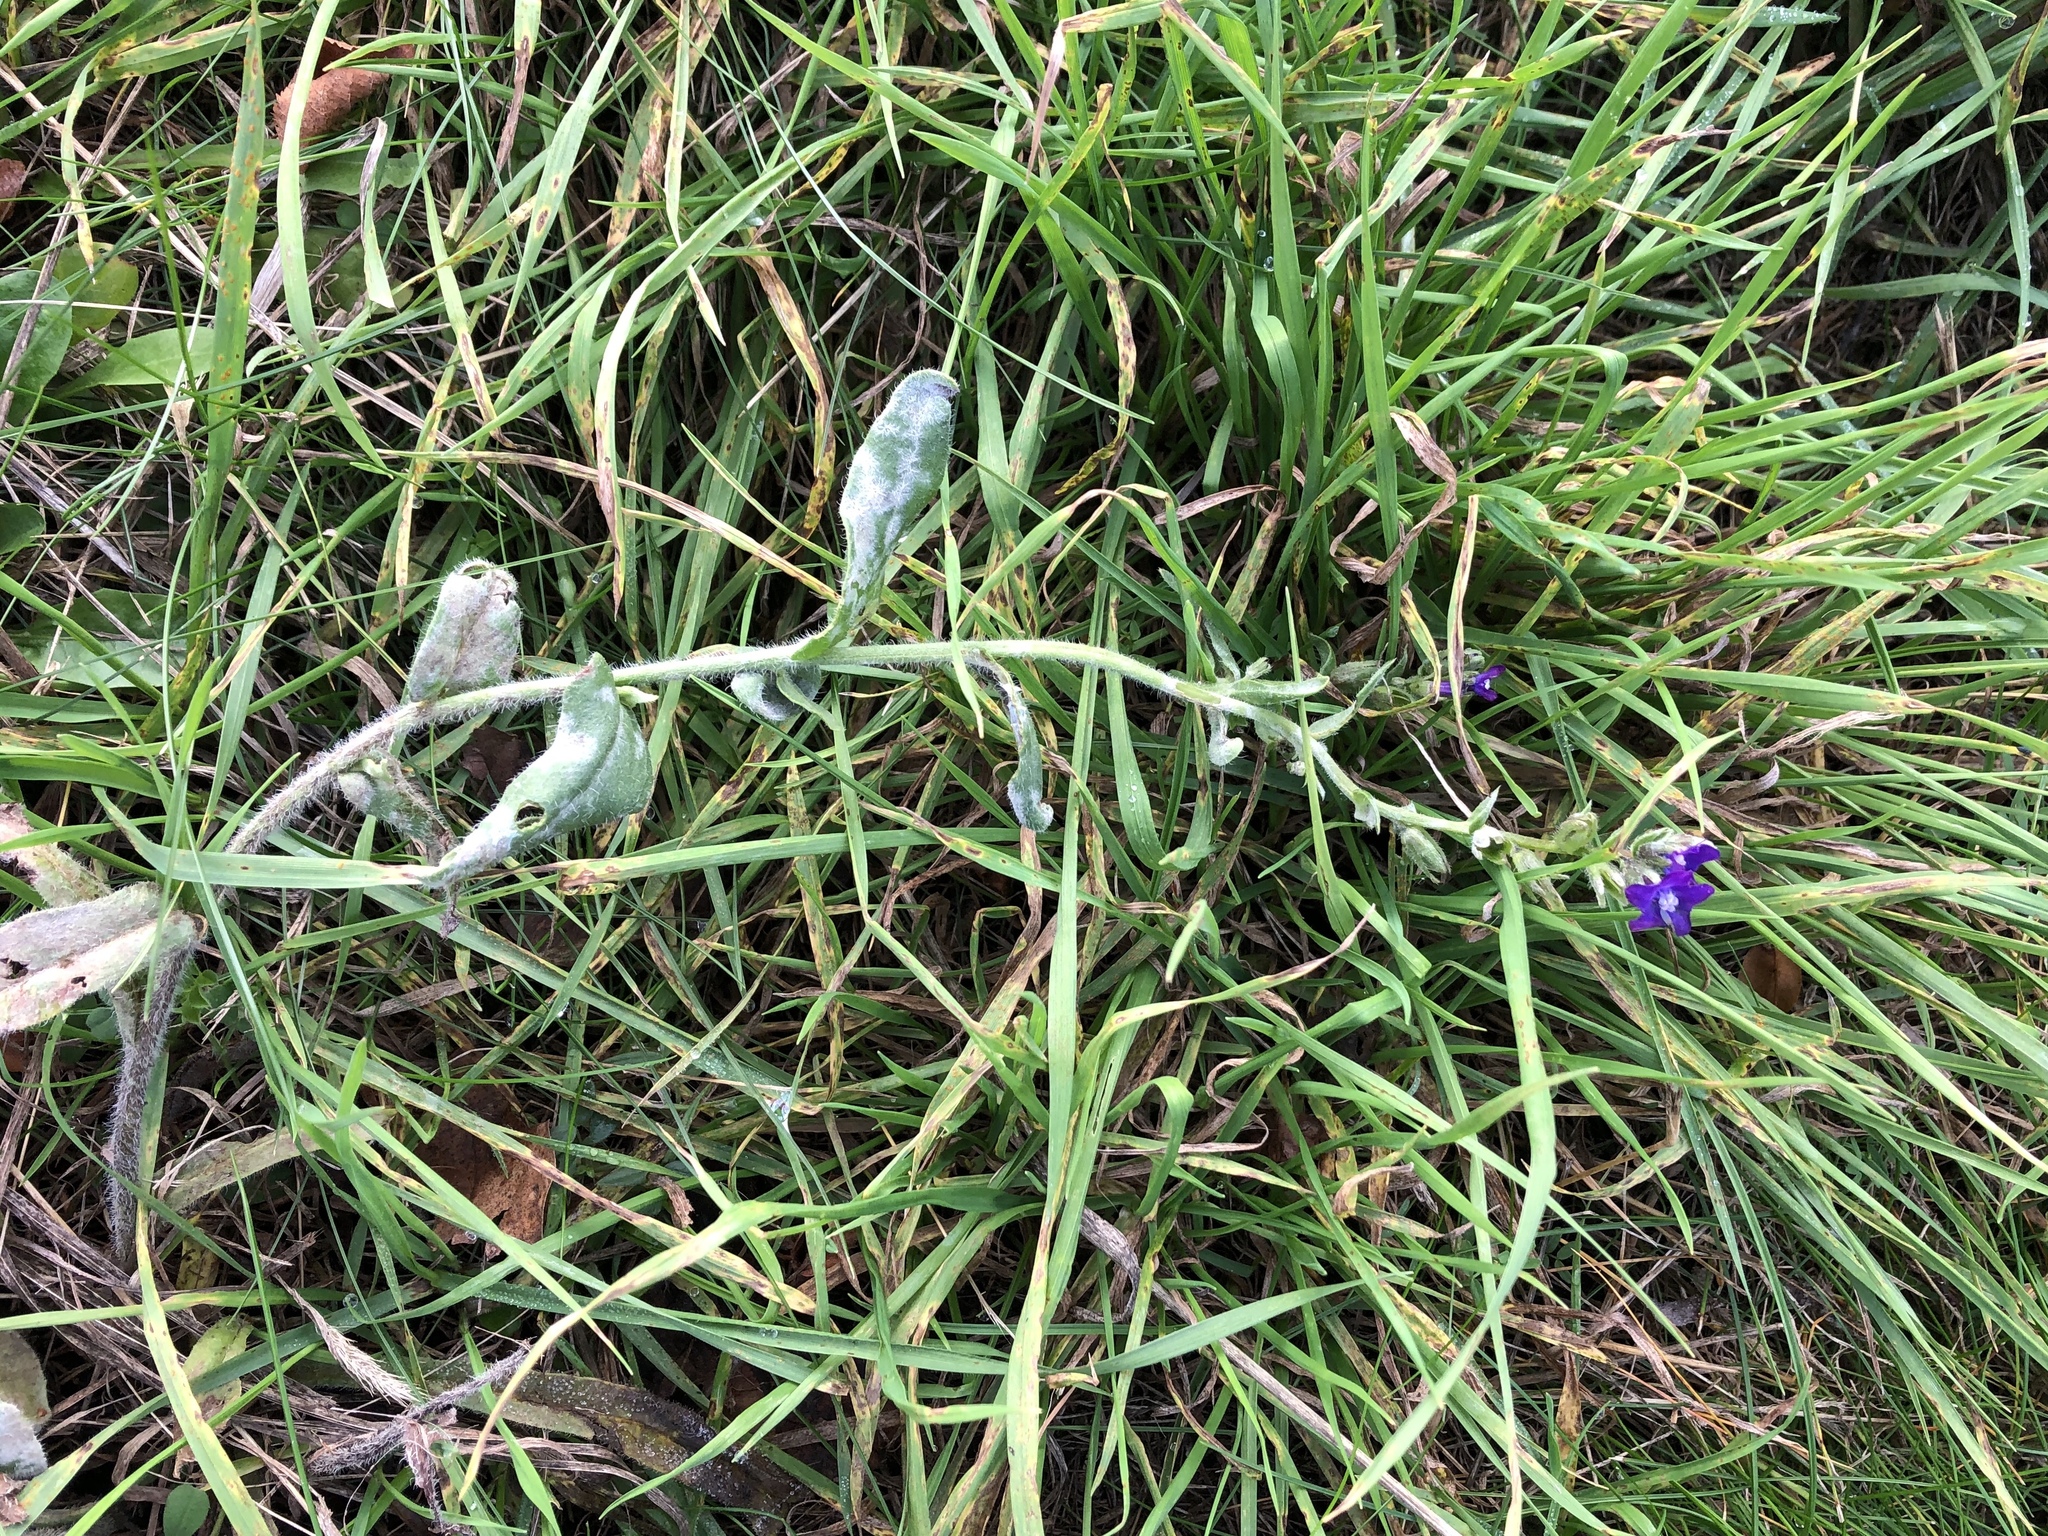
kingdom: Plantae
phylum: Tracheophyta
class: Magnoliopsida
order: Boraginales
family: Boraginaceae
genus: Anchusa
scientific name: Anchusa officinalis
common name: Alkanet
